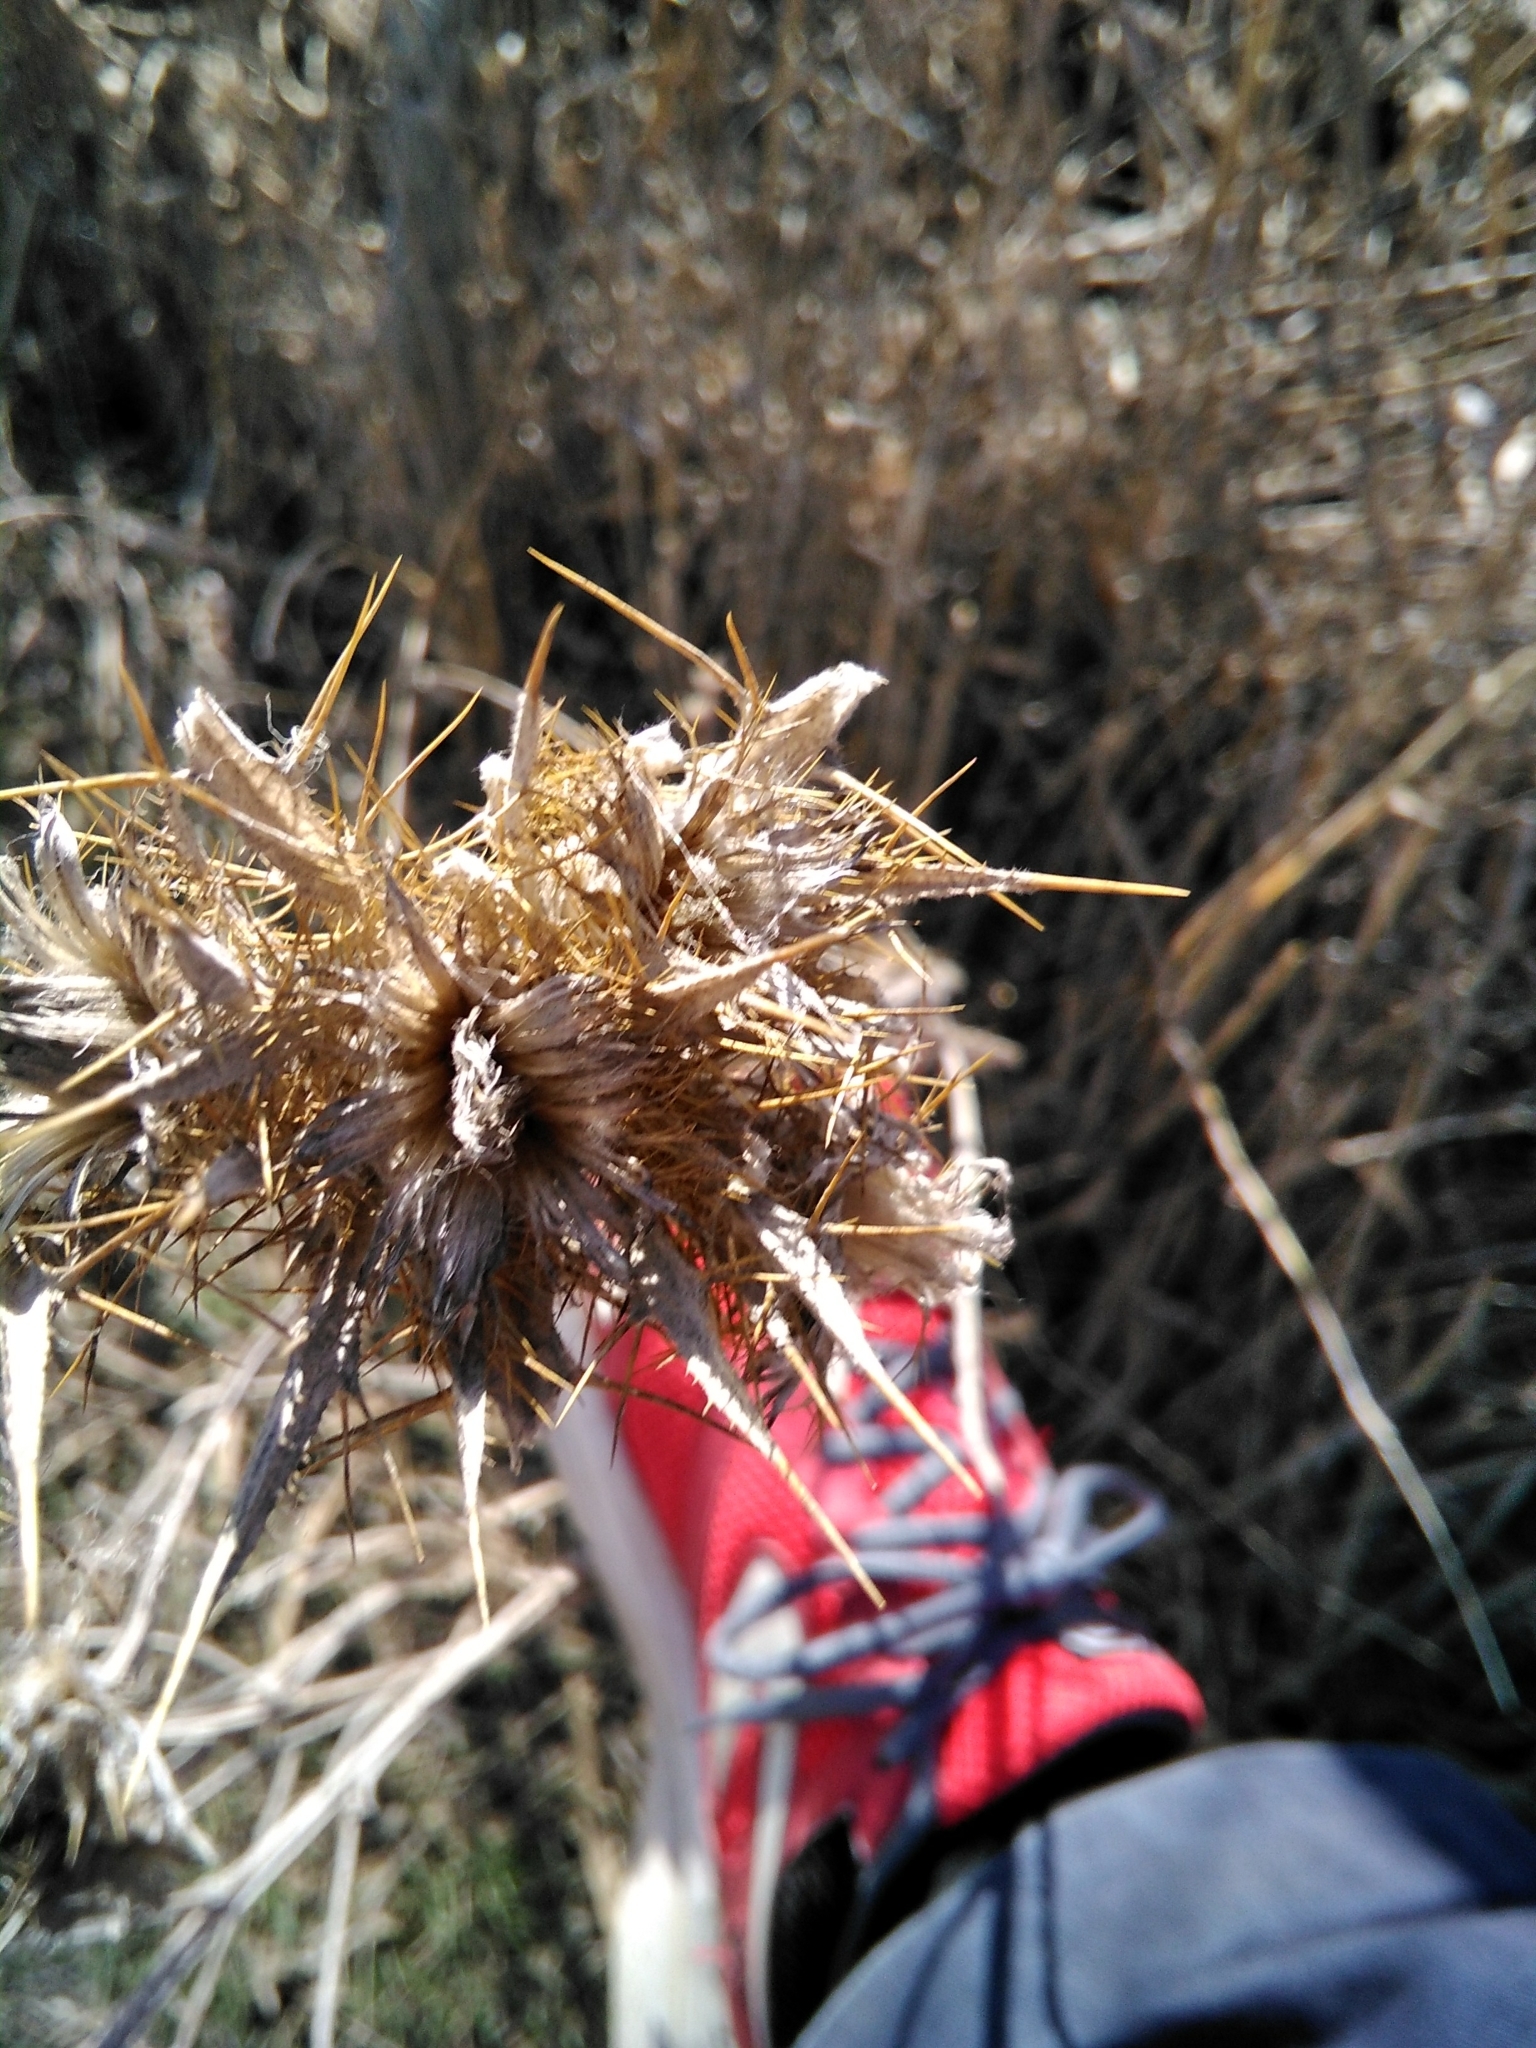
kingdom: Plantae
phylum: Tracheophyta
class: Magnoliopsida
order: Asterales
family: Asteraceae
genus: Picnomon
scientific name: Picnomon acarna
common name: Soldier thistle
